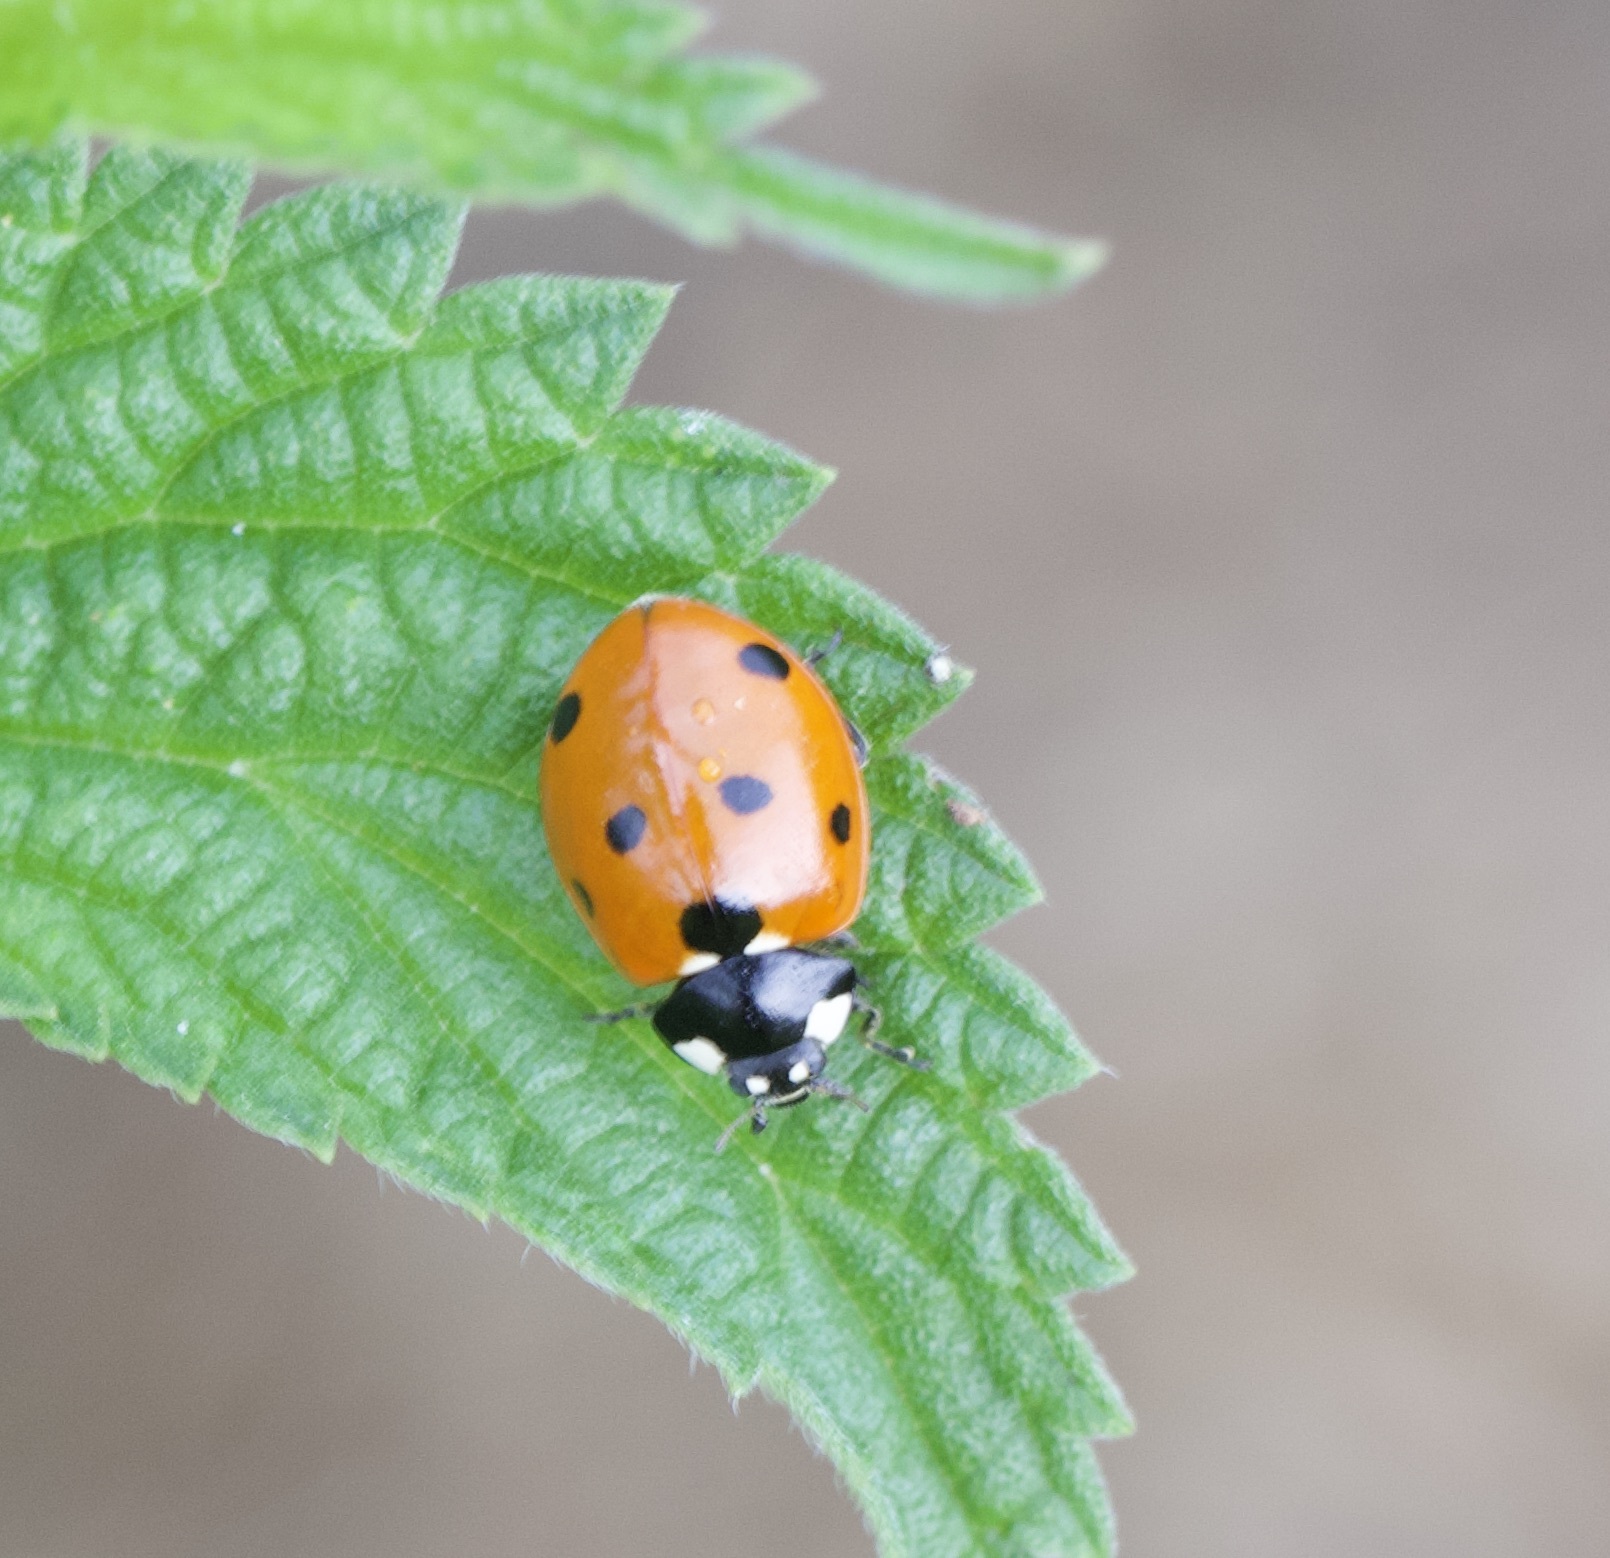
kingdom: Animalia
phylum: Arthropoda
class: Insecta
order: Coleoptera
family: Coccinellidae
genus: Coccinella
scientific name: Coccinella septempunctata
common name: Sevenspotted lady beetle
